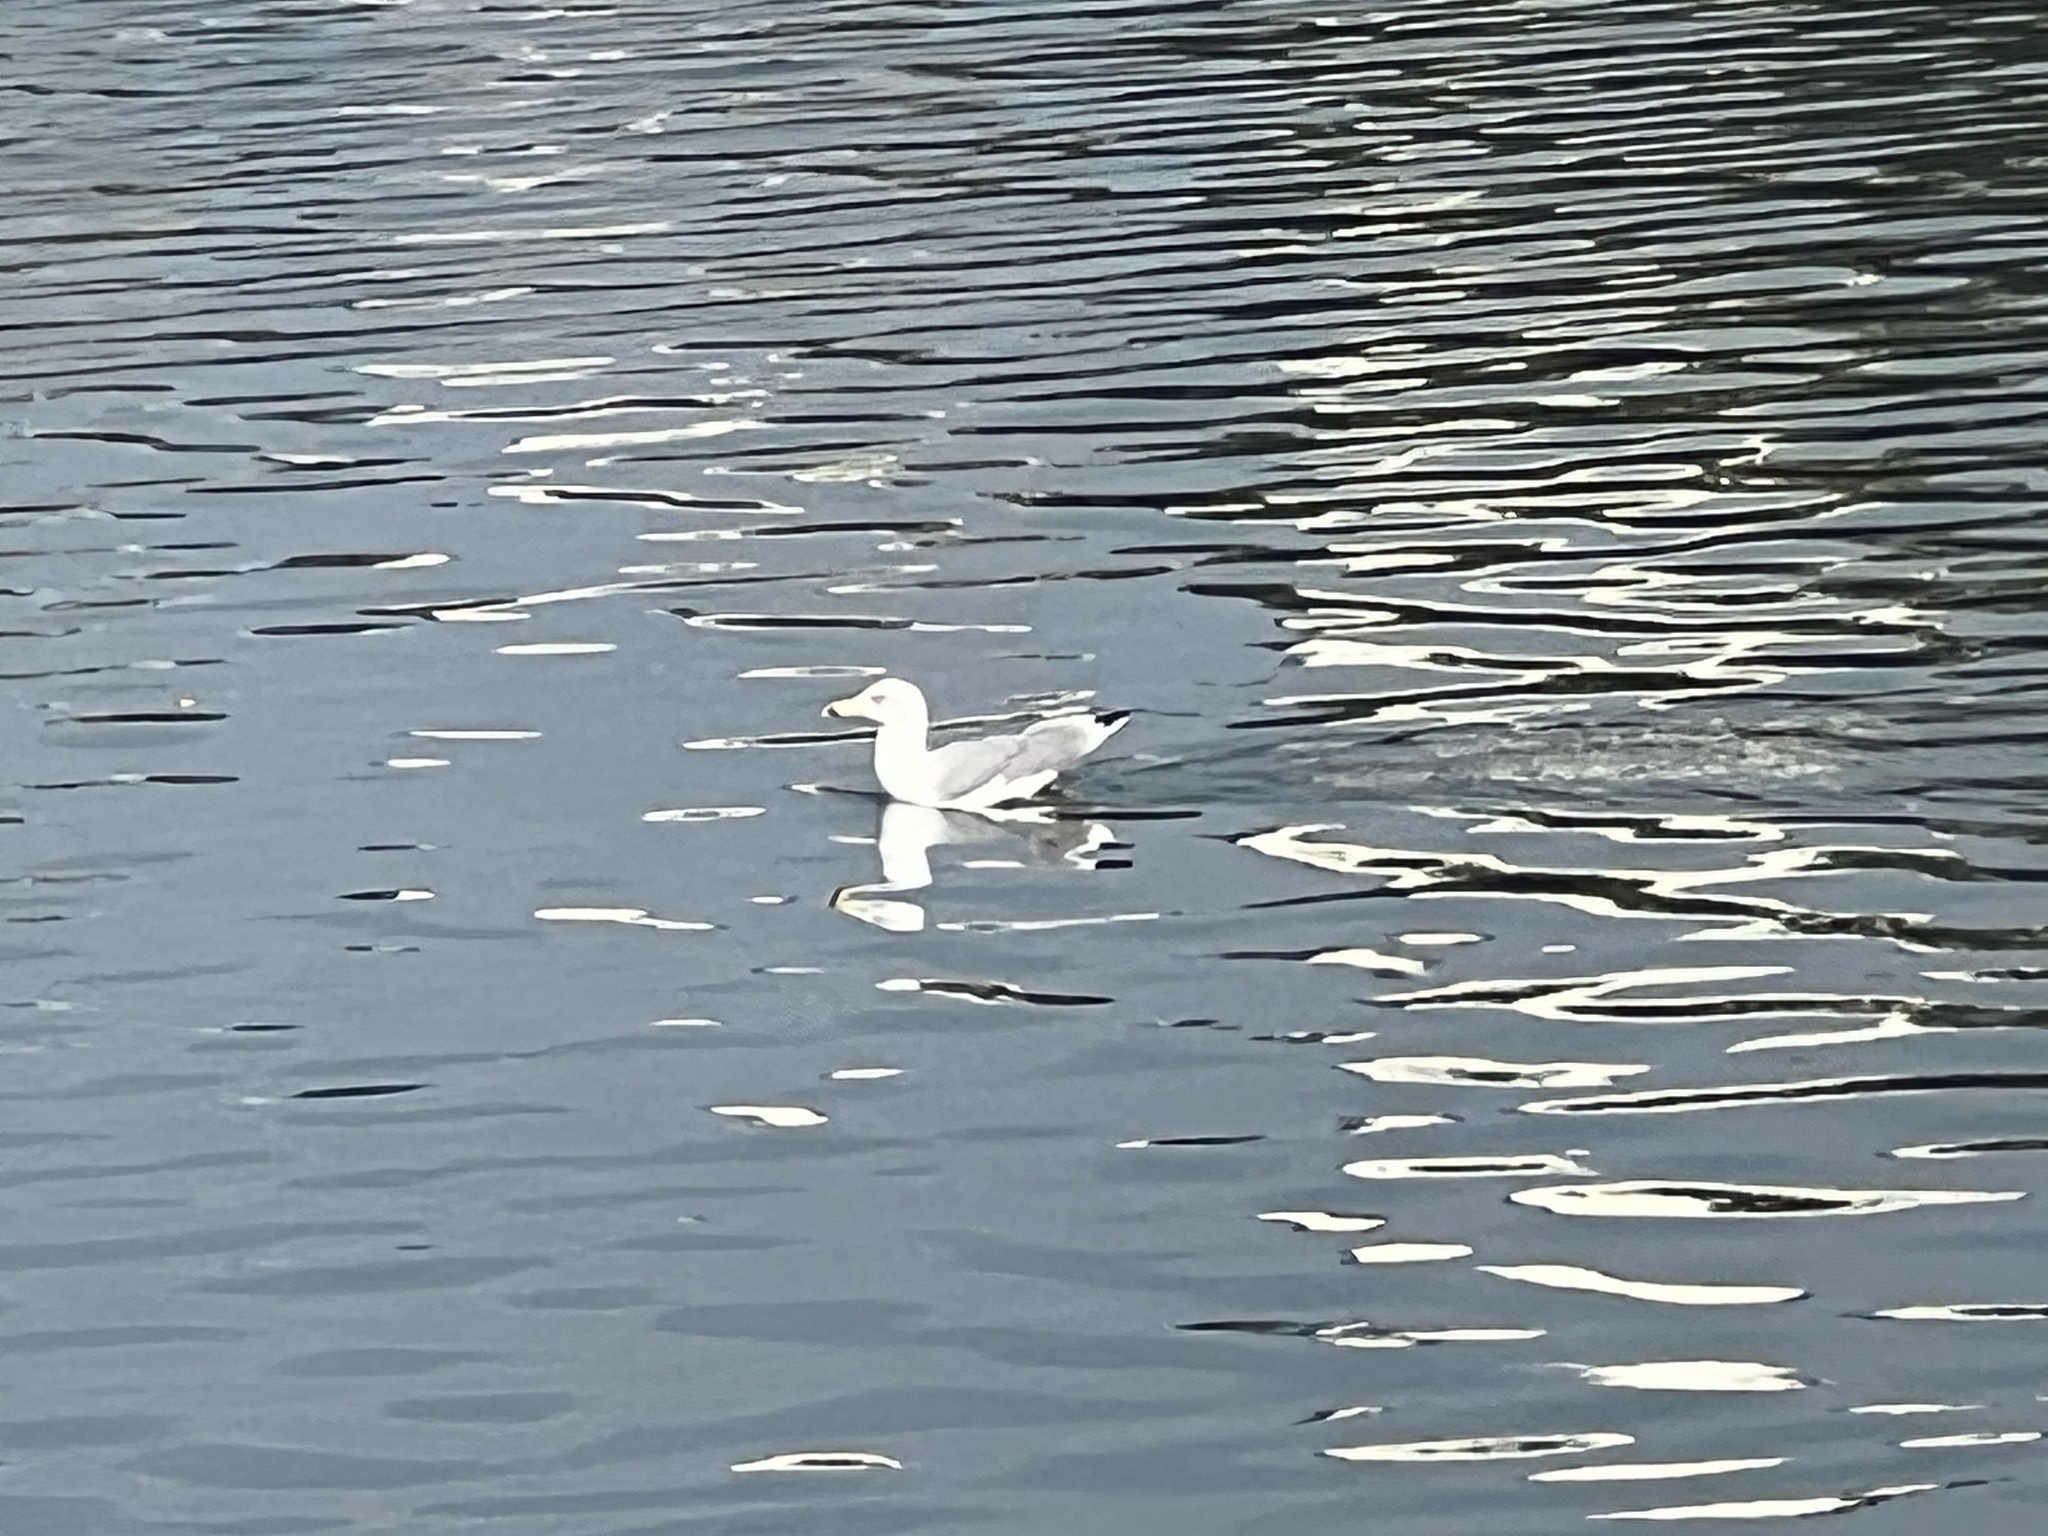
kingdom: Animalia
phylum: Chordata
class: Aves
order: Charadriiformes
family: Laridae
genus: Larus
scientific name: Larus michahellis
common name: Yellow-legged gull
